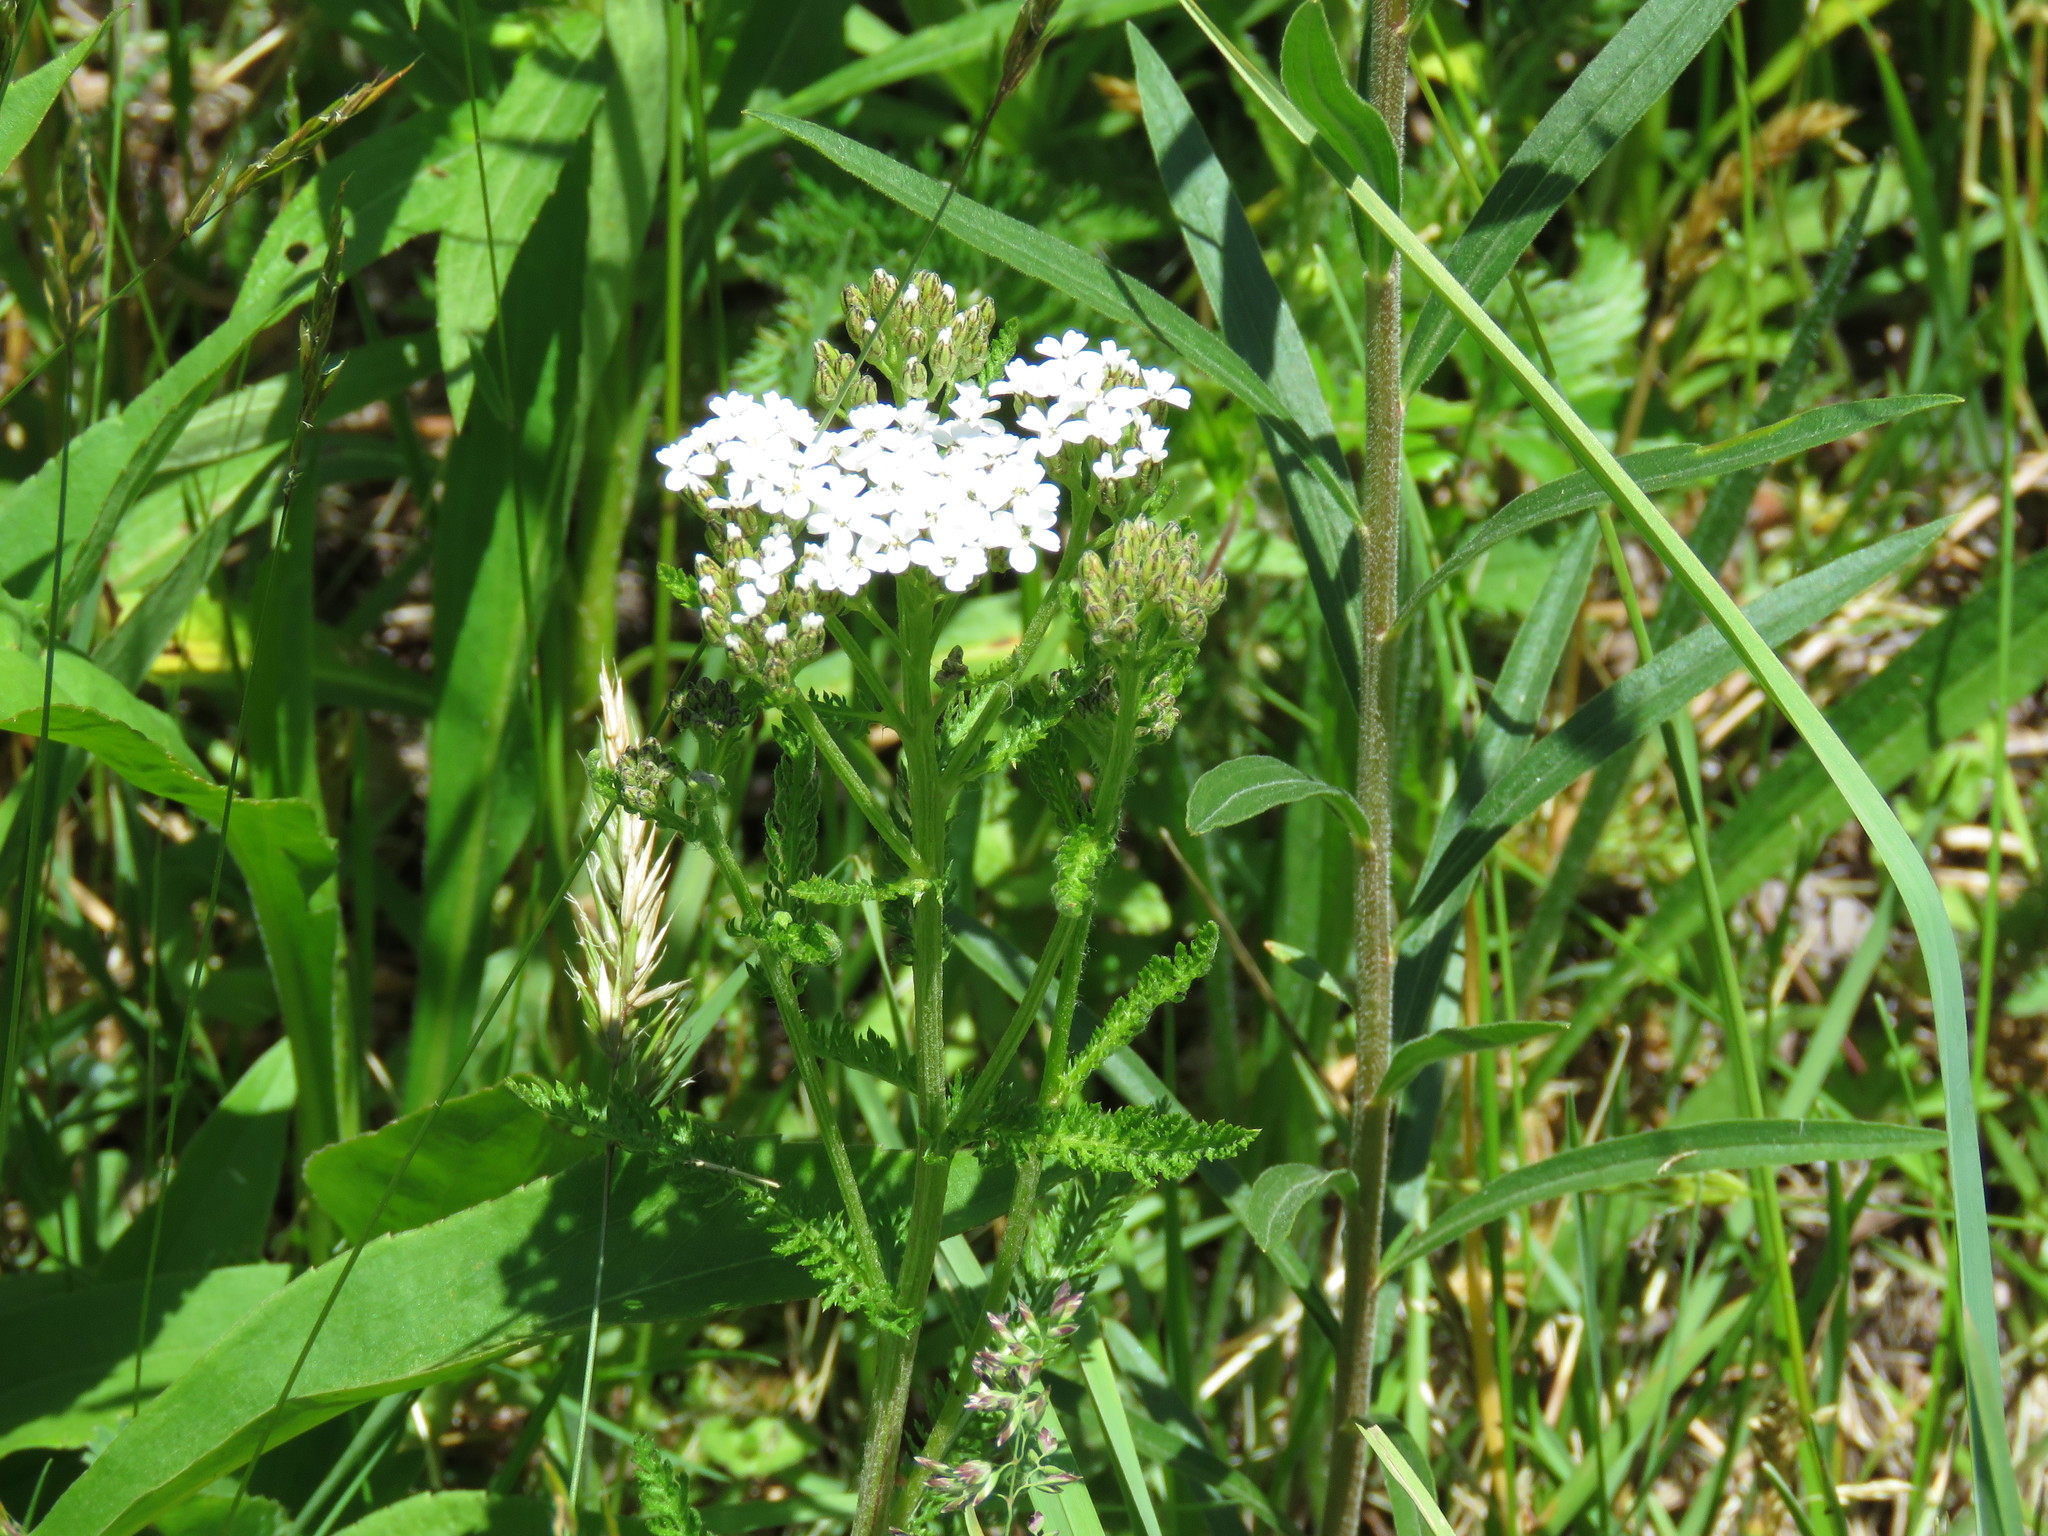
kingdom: Plantae
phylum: Tracheophyta
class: Magnoliopsida
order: Asterales
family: Asteraceae
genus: Achillea
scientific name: Achillea millefolium
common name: Yarrow
